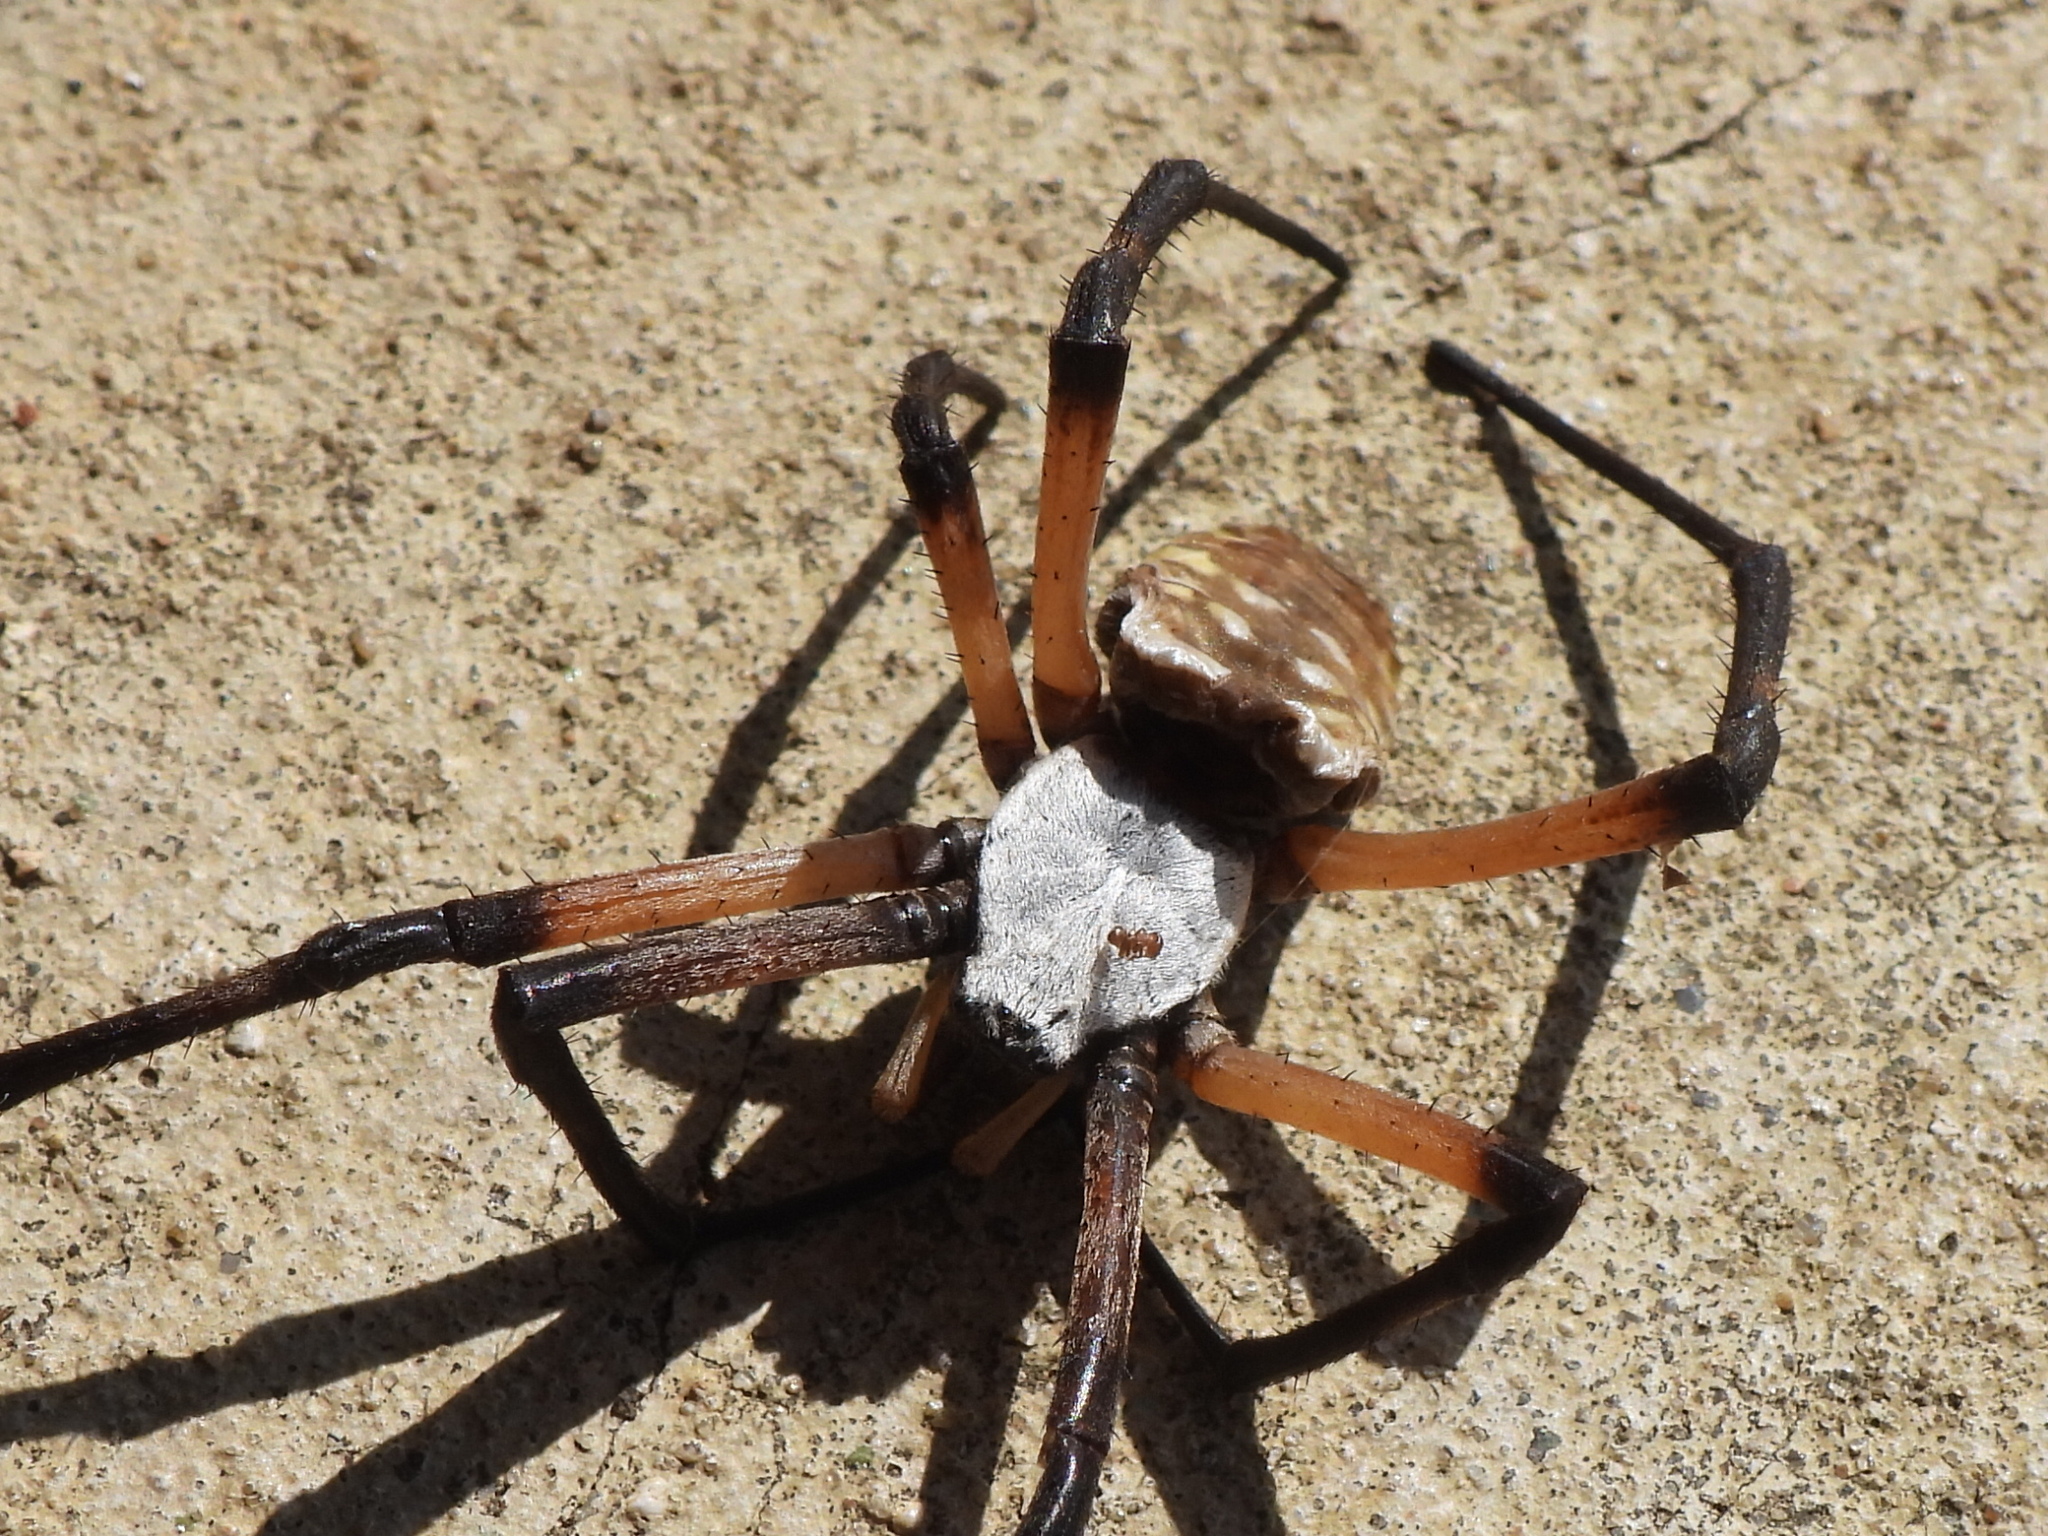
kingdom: Animalia
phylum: Arthropoda
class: Arachnida
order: Araneae
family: Araneidae
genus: Argiope
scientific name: Argiope aurantia
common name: Orb weavers
